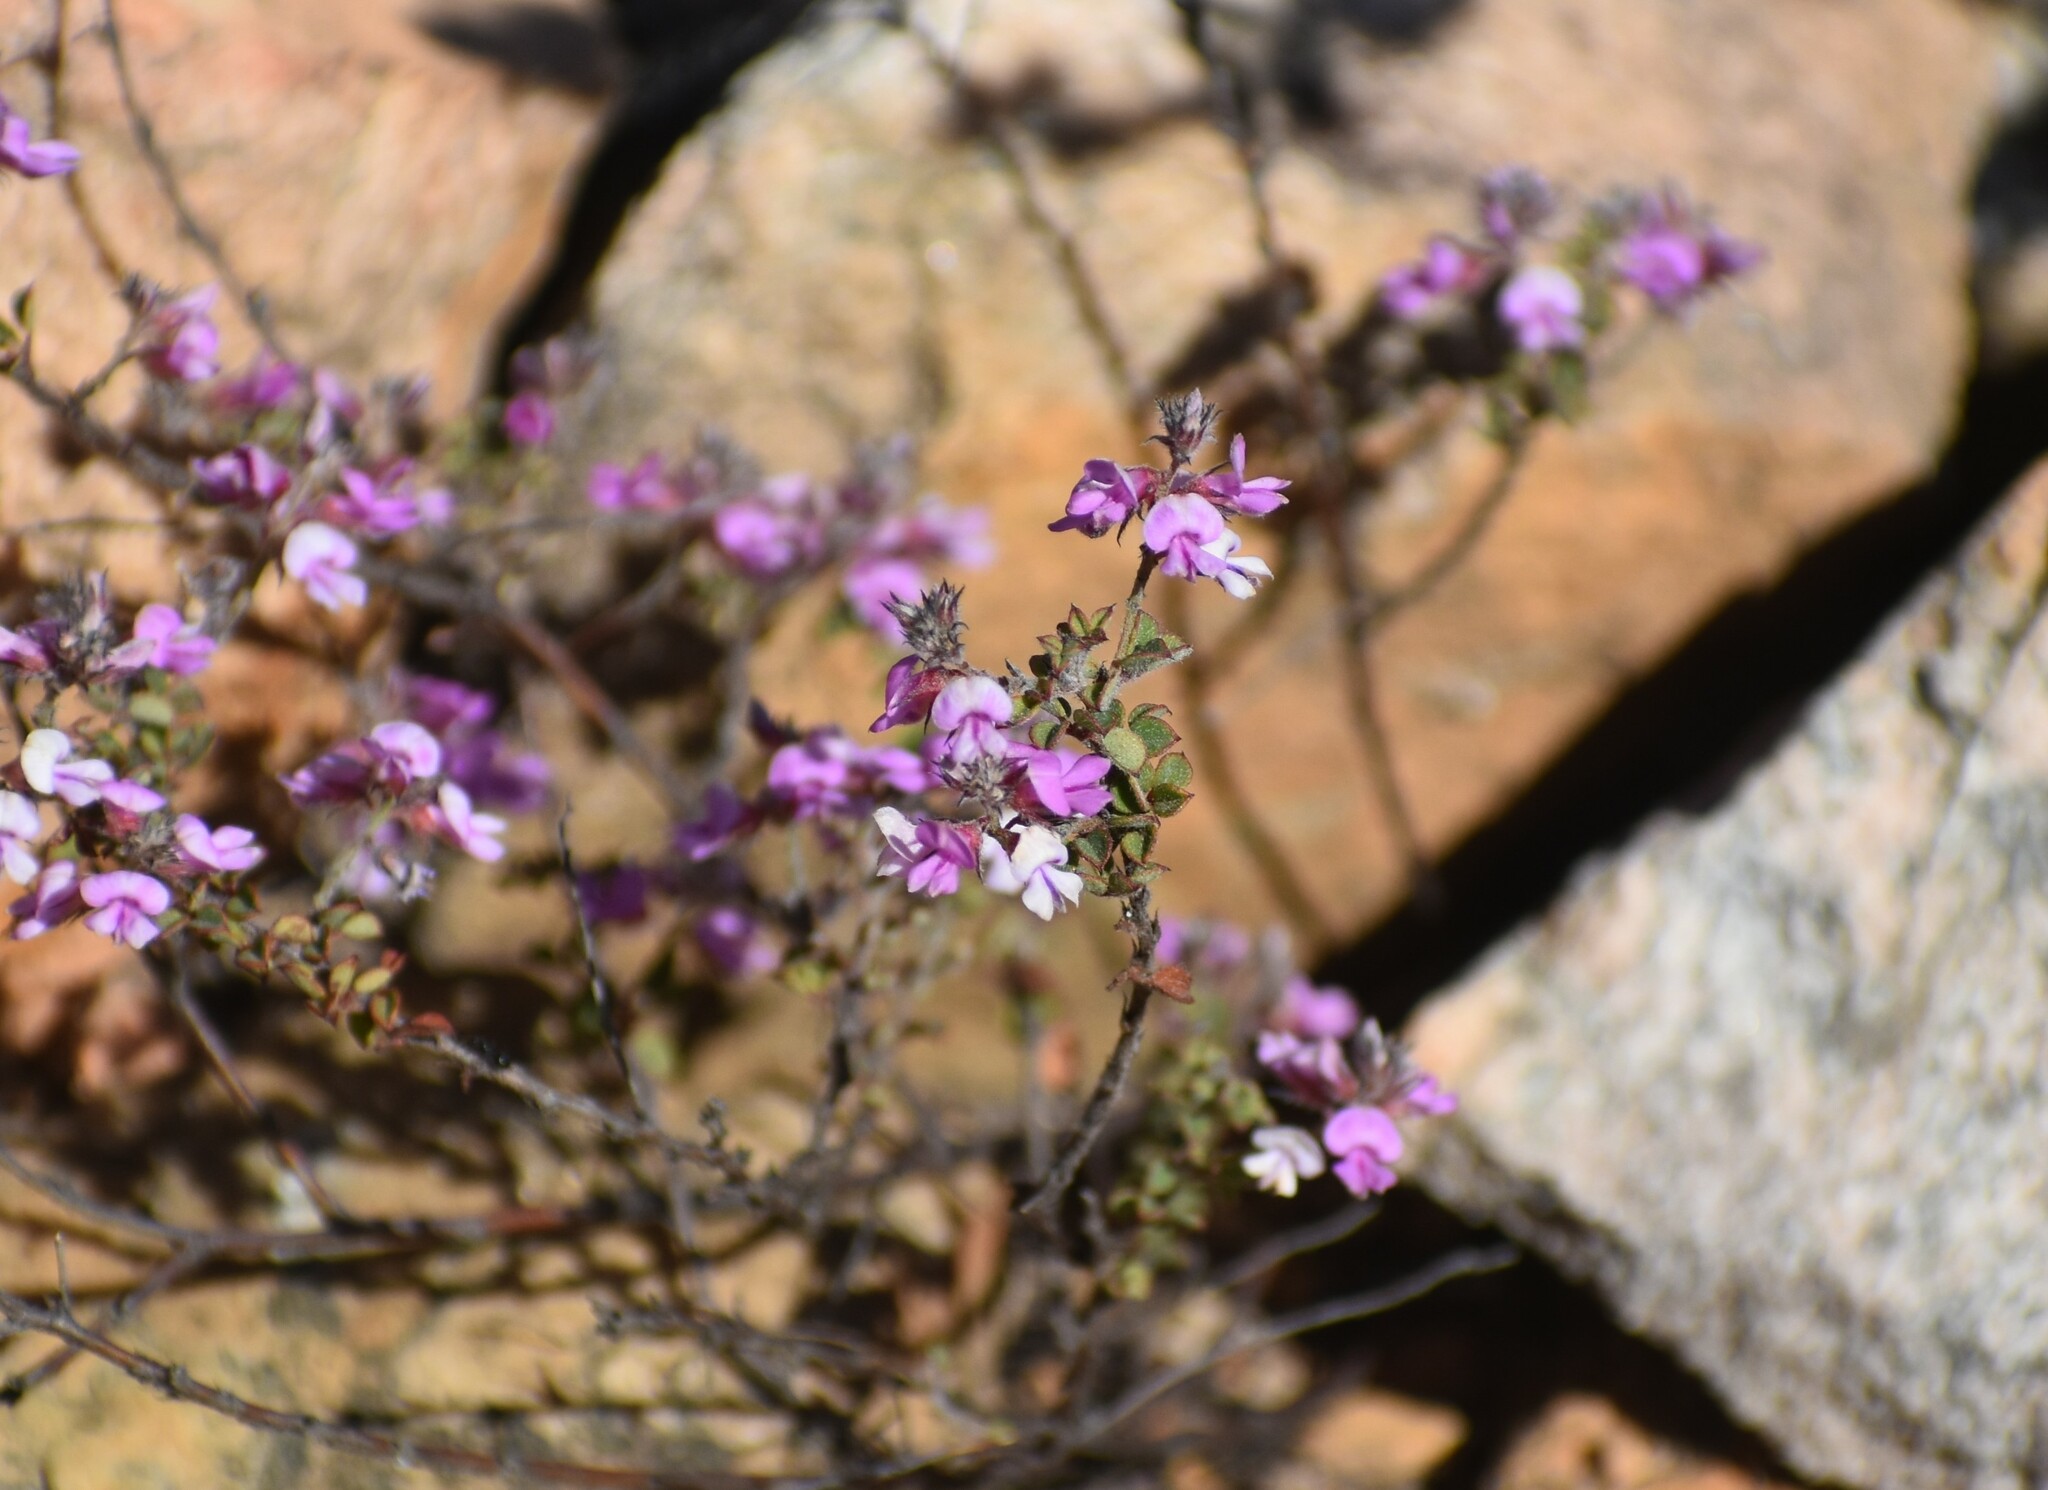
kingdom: Plantae
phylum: Tracheophyta
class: Magnoliopsida
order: Fabales
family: Fabaceae
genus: Indigofera
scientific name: Indigofera alopecuroides
